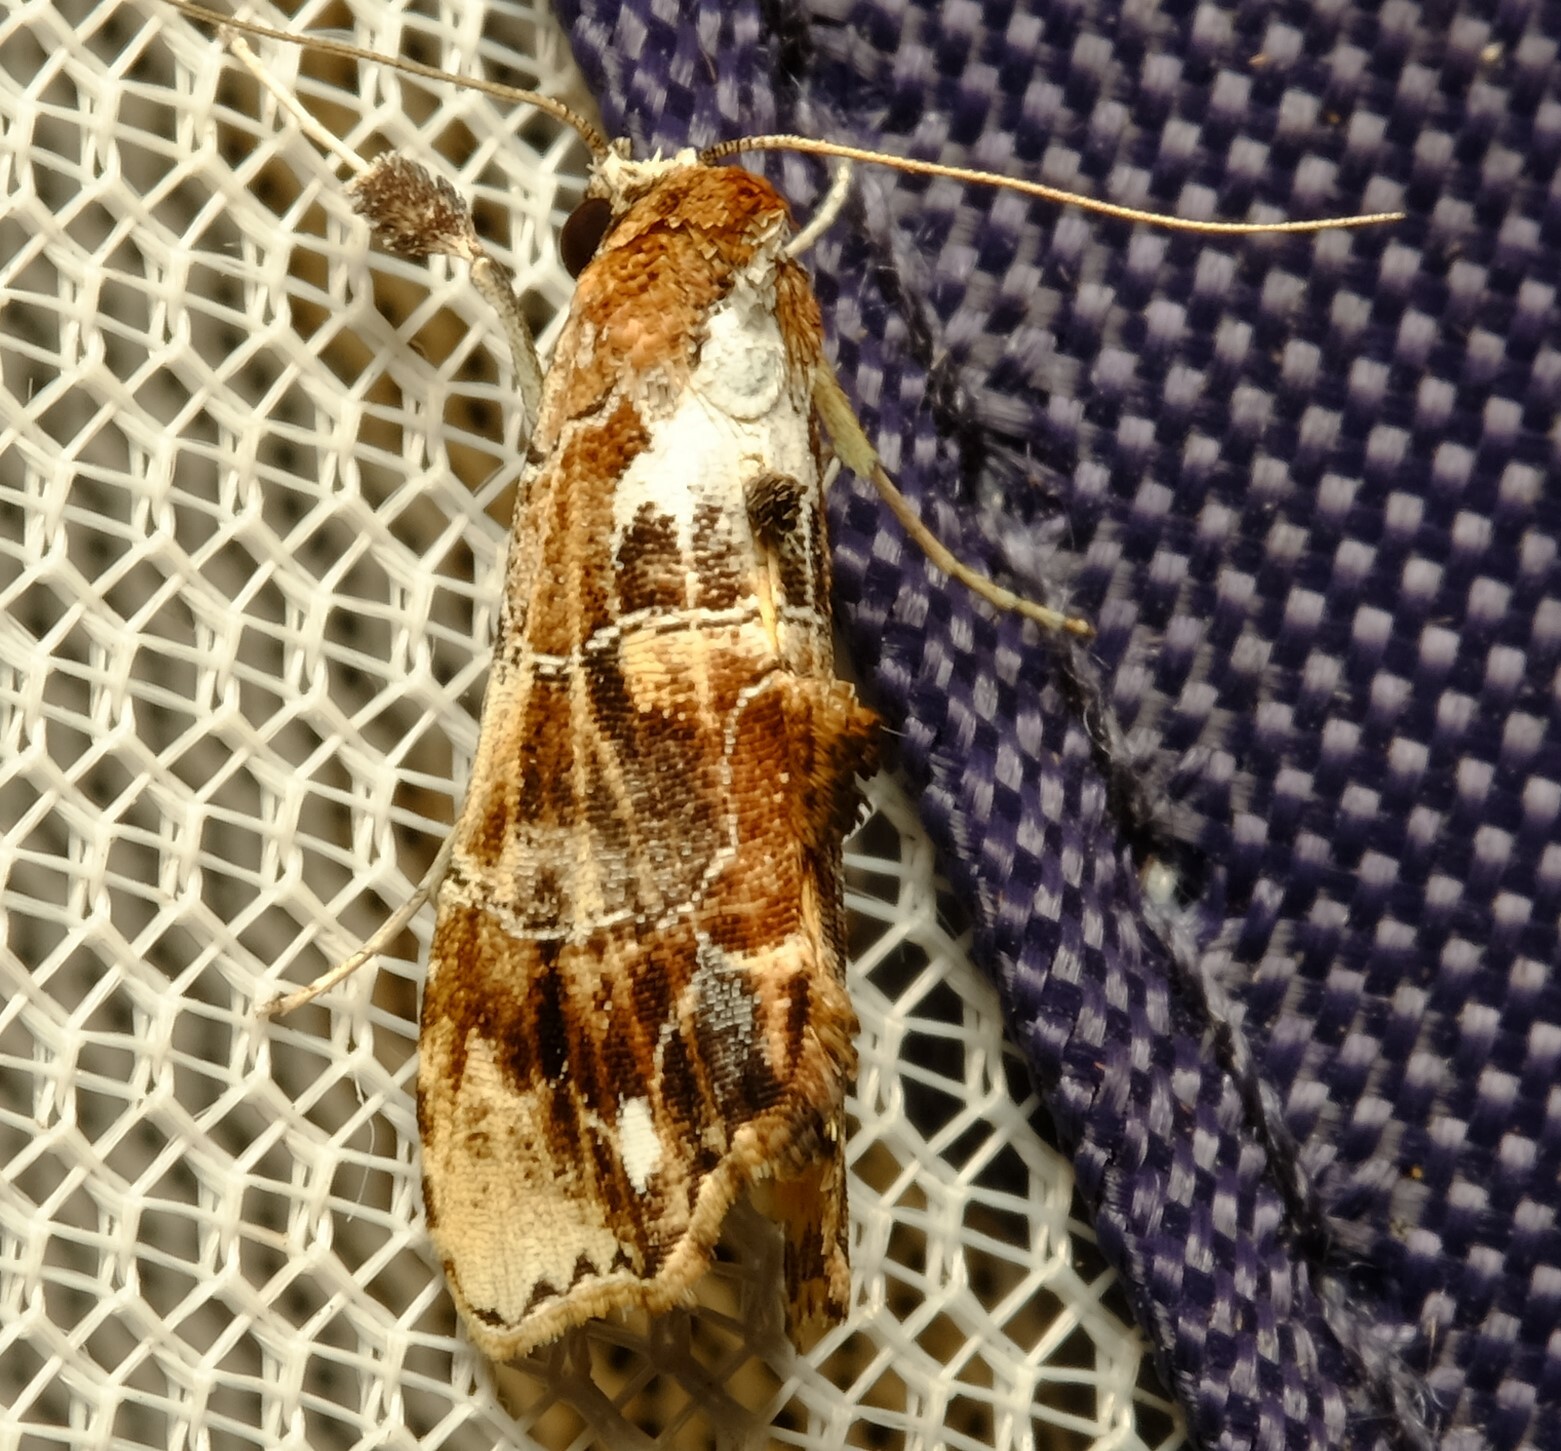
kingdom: Animalia
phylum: Arthropoda
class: Insecta
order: Lepidoptera
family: Erebidae
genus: Arrade
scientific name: Arrade leucocosmalis
